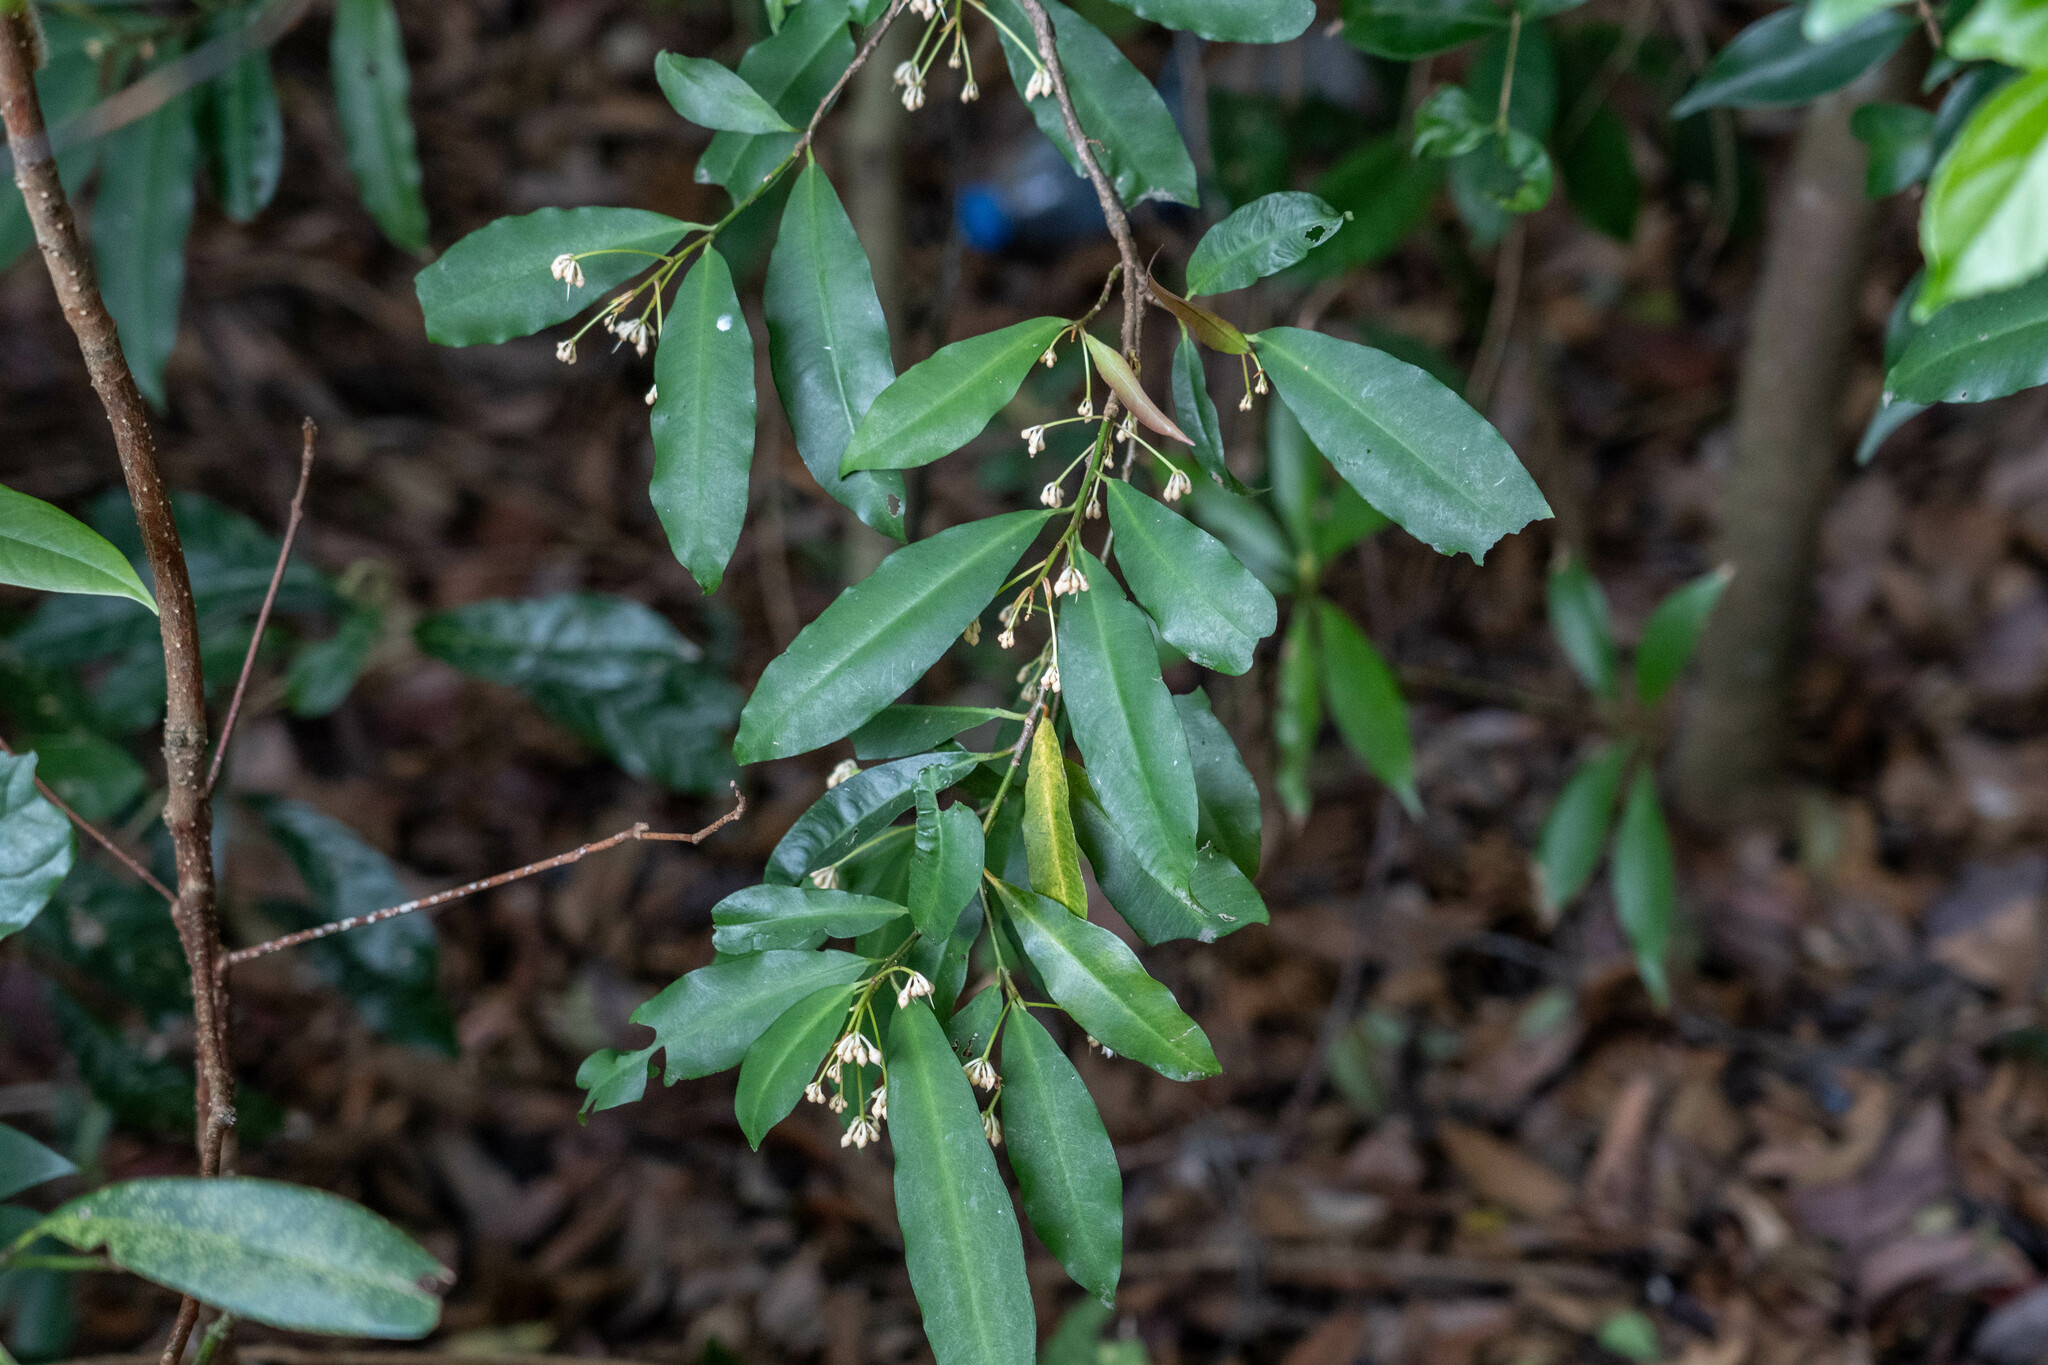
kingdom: Plantae
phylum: Tracheophyta
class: Magnoliopsida
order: Ericales
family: Primulaceae
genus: Ardisia
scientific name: Ardisia quinquegona
